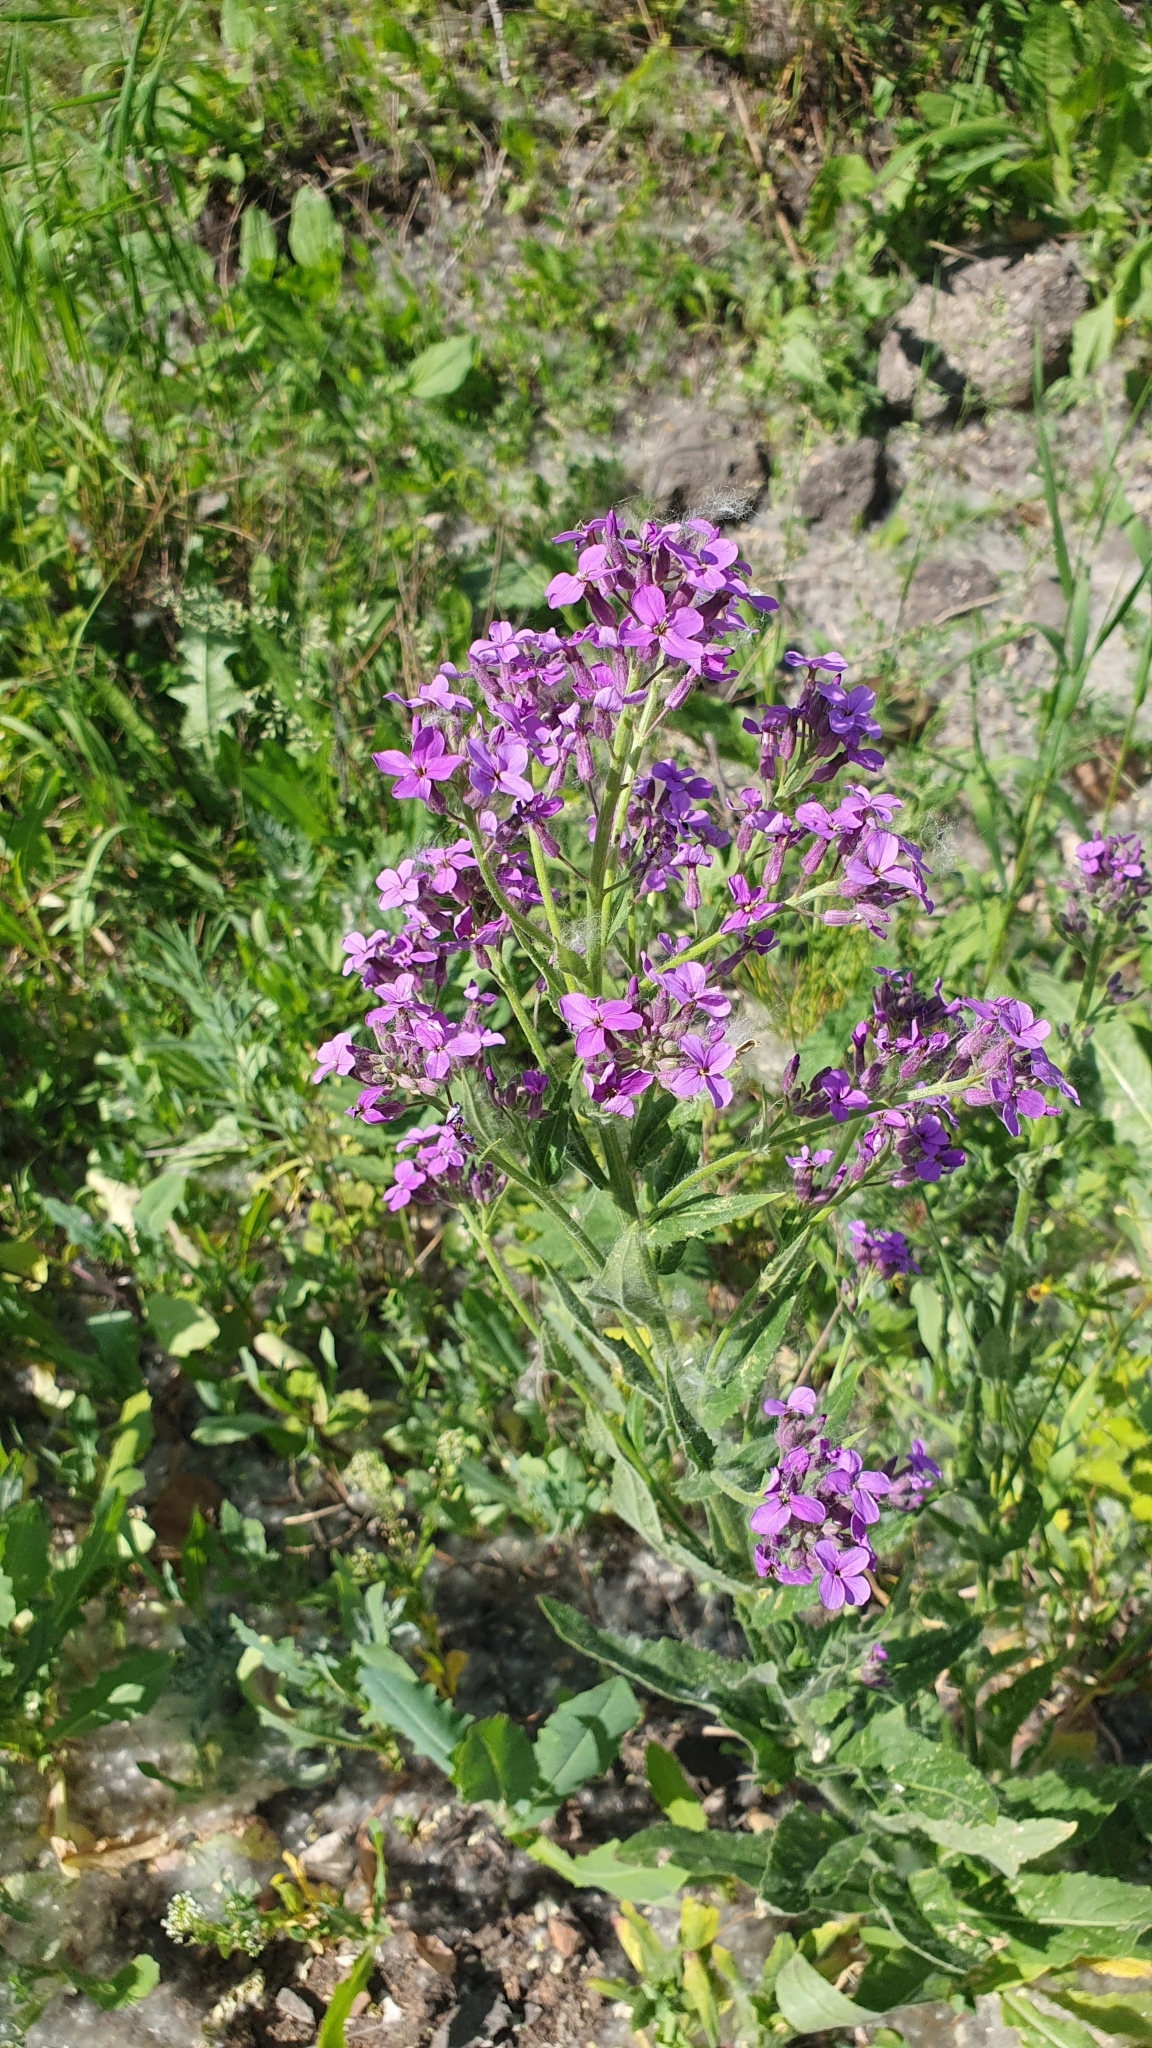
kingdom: Plantae
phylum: Tracheophyta
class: Magnoliopsida
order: Brassicales
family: Brassicaceae
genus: Hesperis
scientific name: Hesperis matronalis
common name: Dame's-violet
